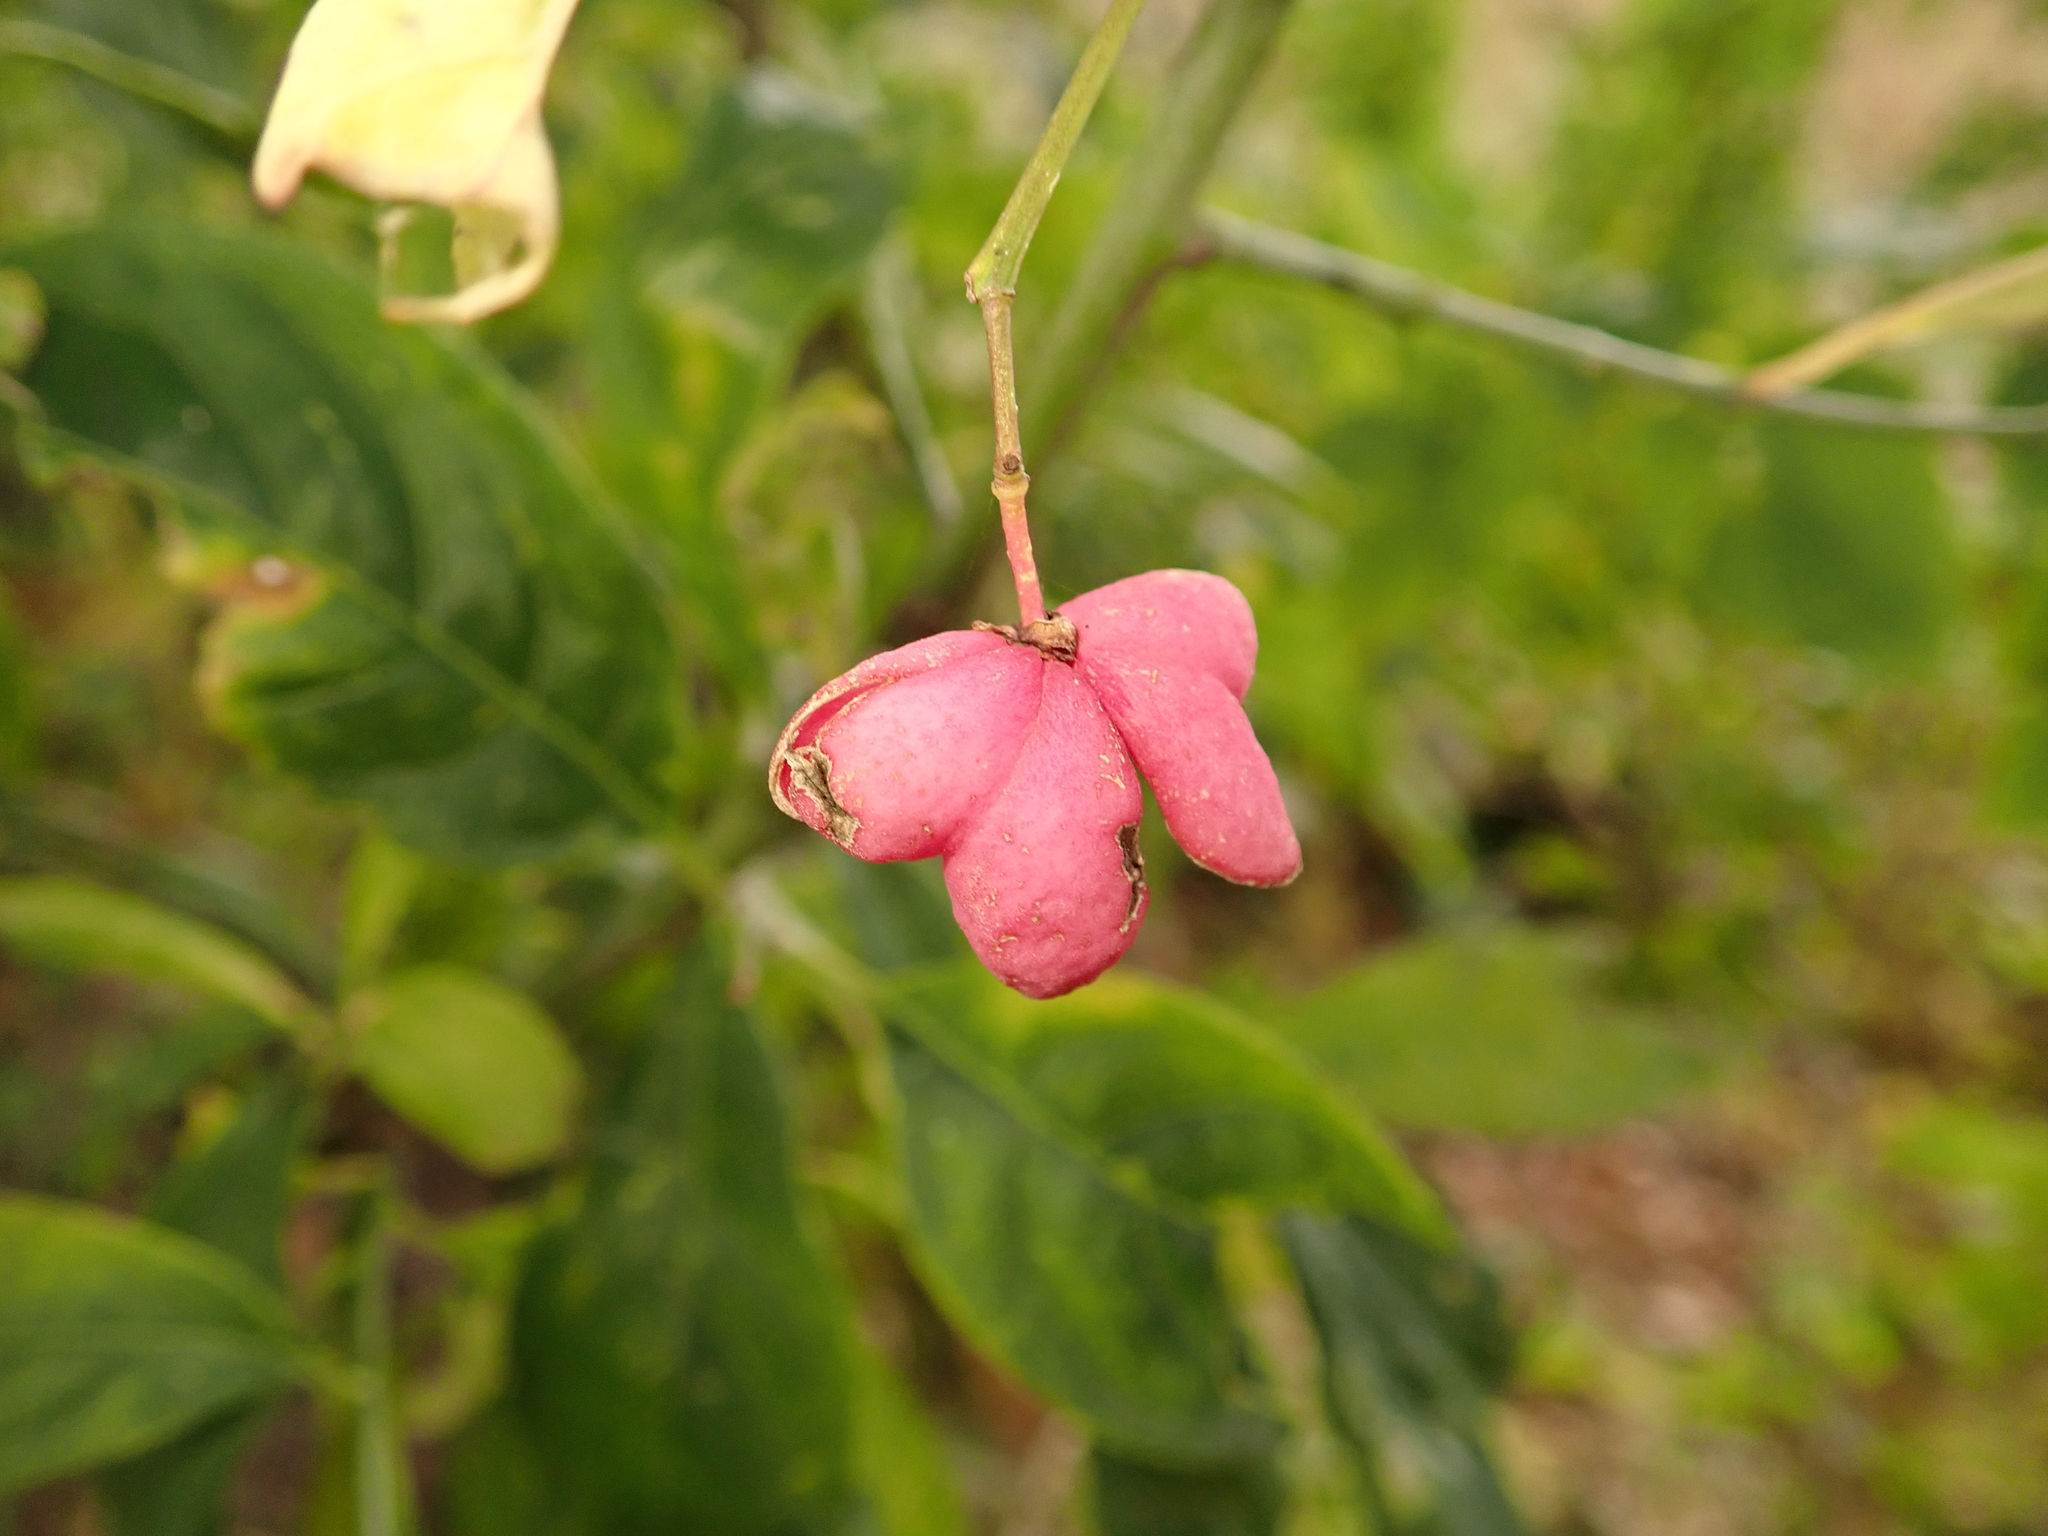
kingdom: Plantae
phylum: Tracheophyta
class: Magnoliopsida
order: Celastrales
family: Celastraceae
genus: Euonymus
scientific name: Euonymus europaeus
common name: Spindle
